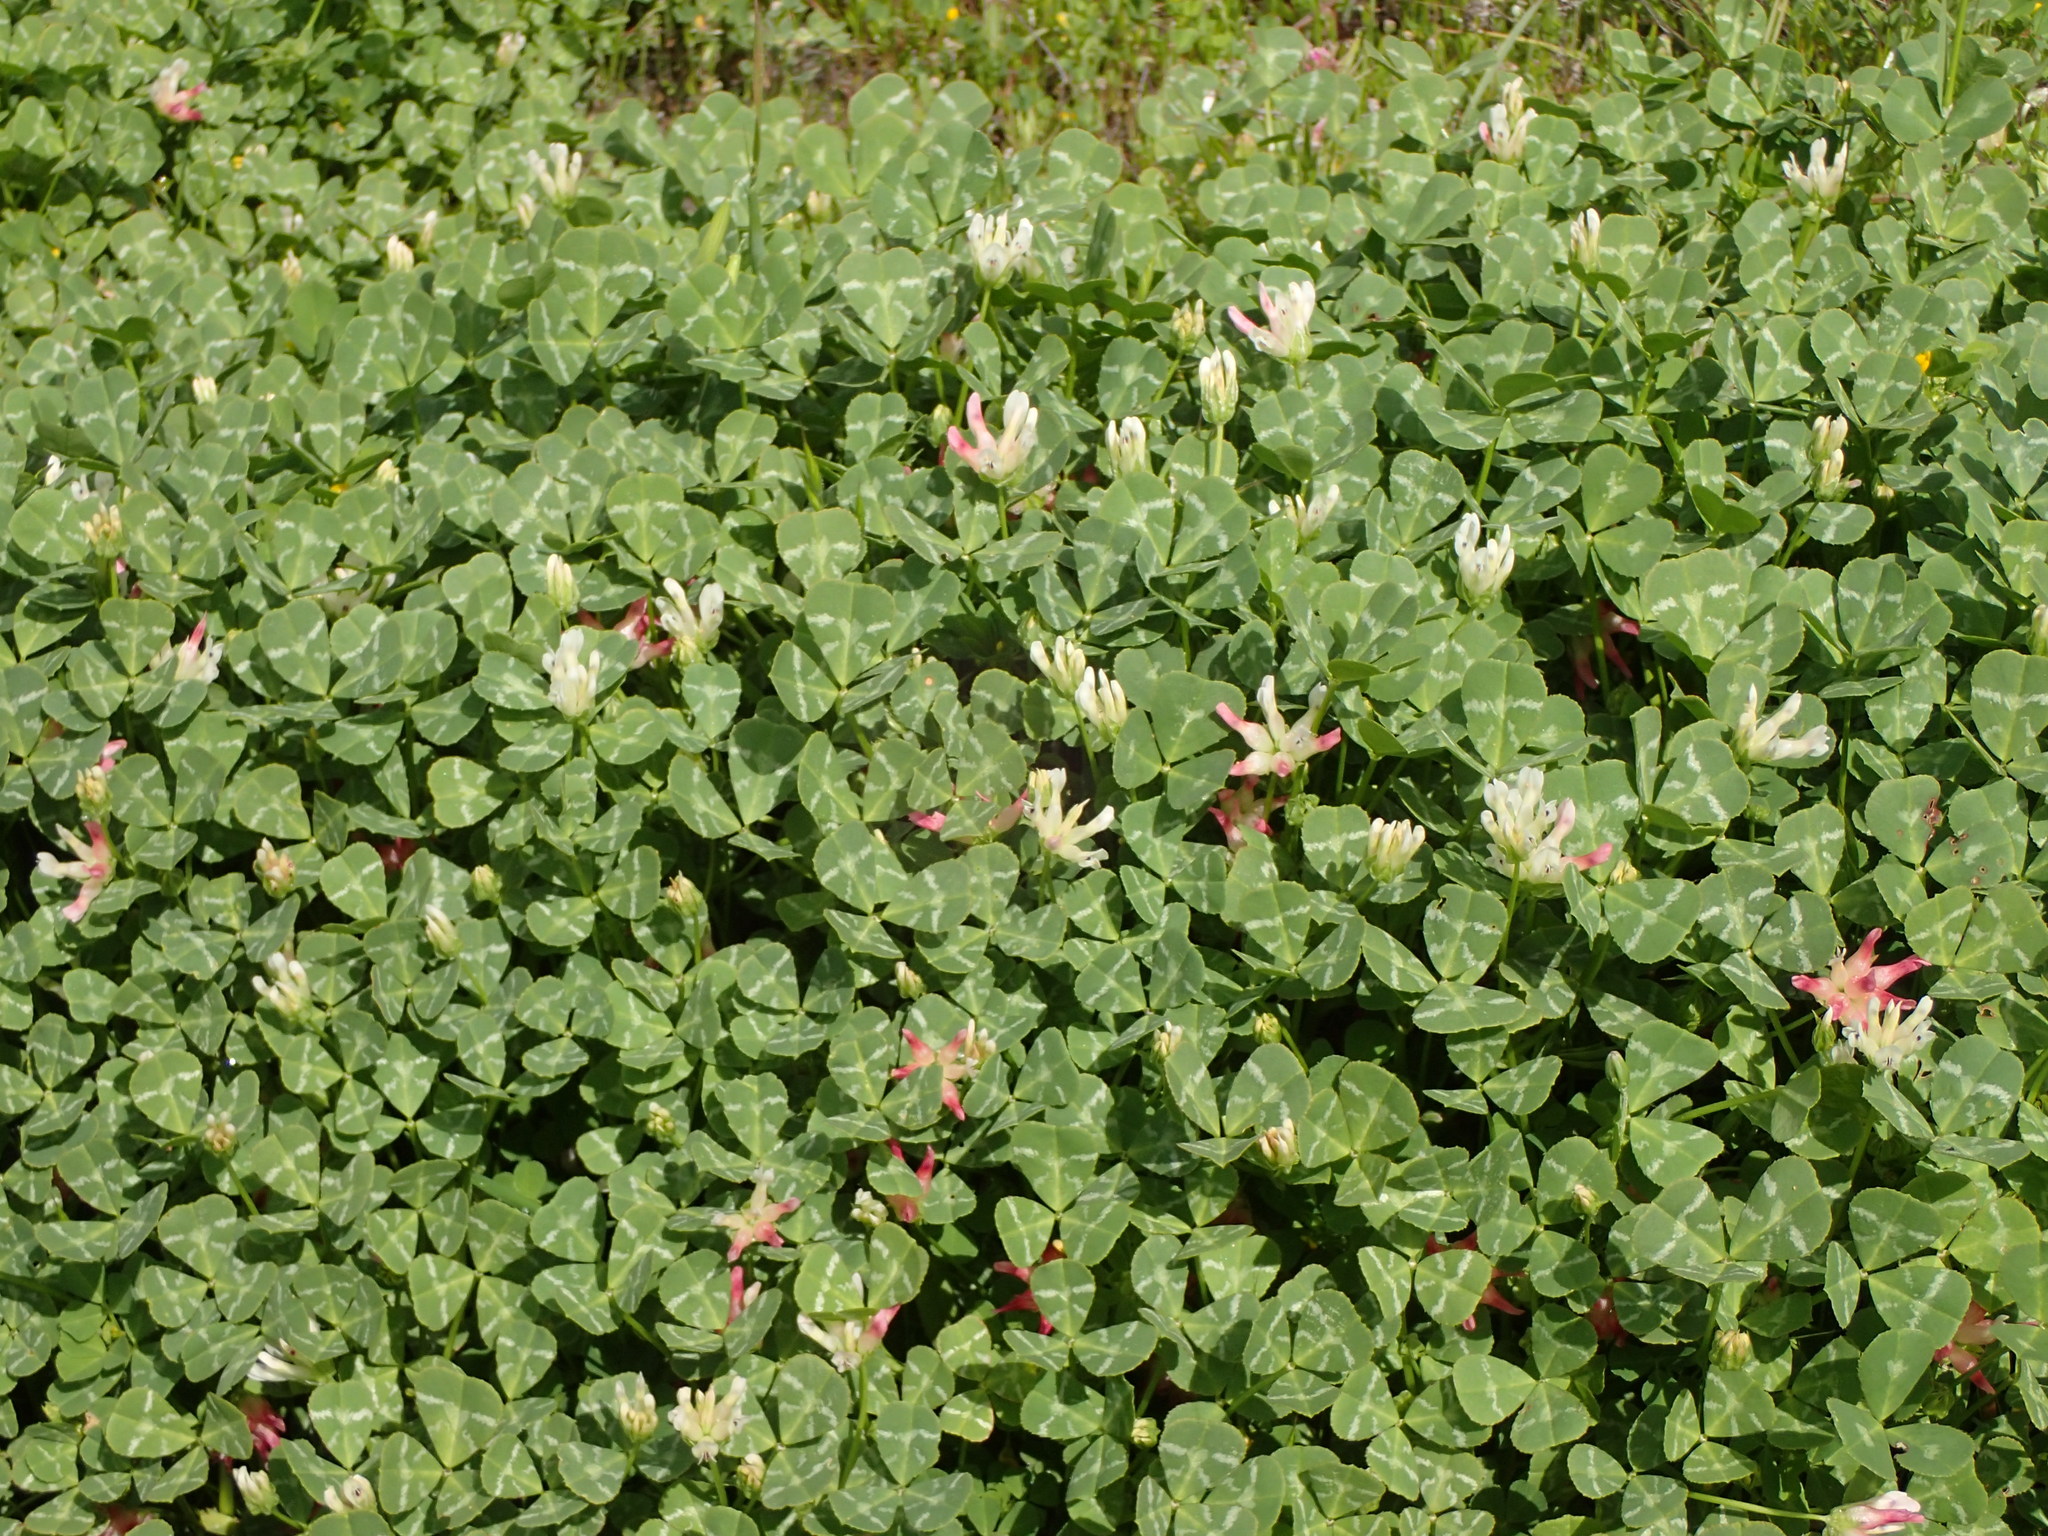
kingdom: Plantae
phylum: Tracheophyta
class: Magnoliopsida
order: Fabales
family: Fabaceae
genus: Trifolium
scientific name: Trifolium fucatum
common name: Puff clover
